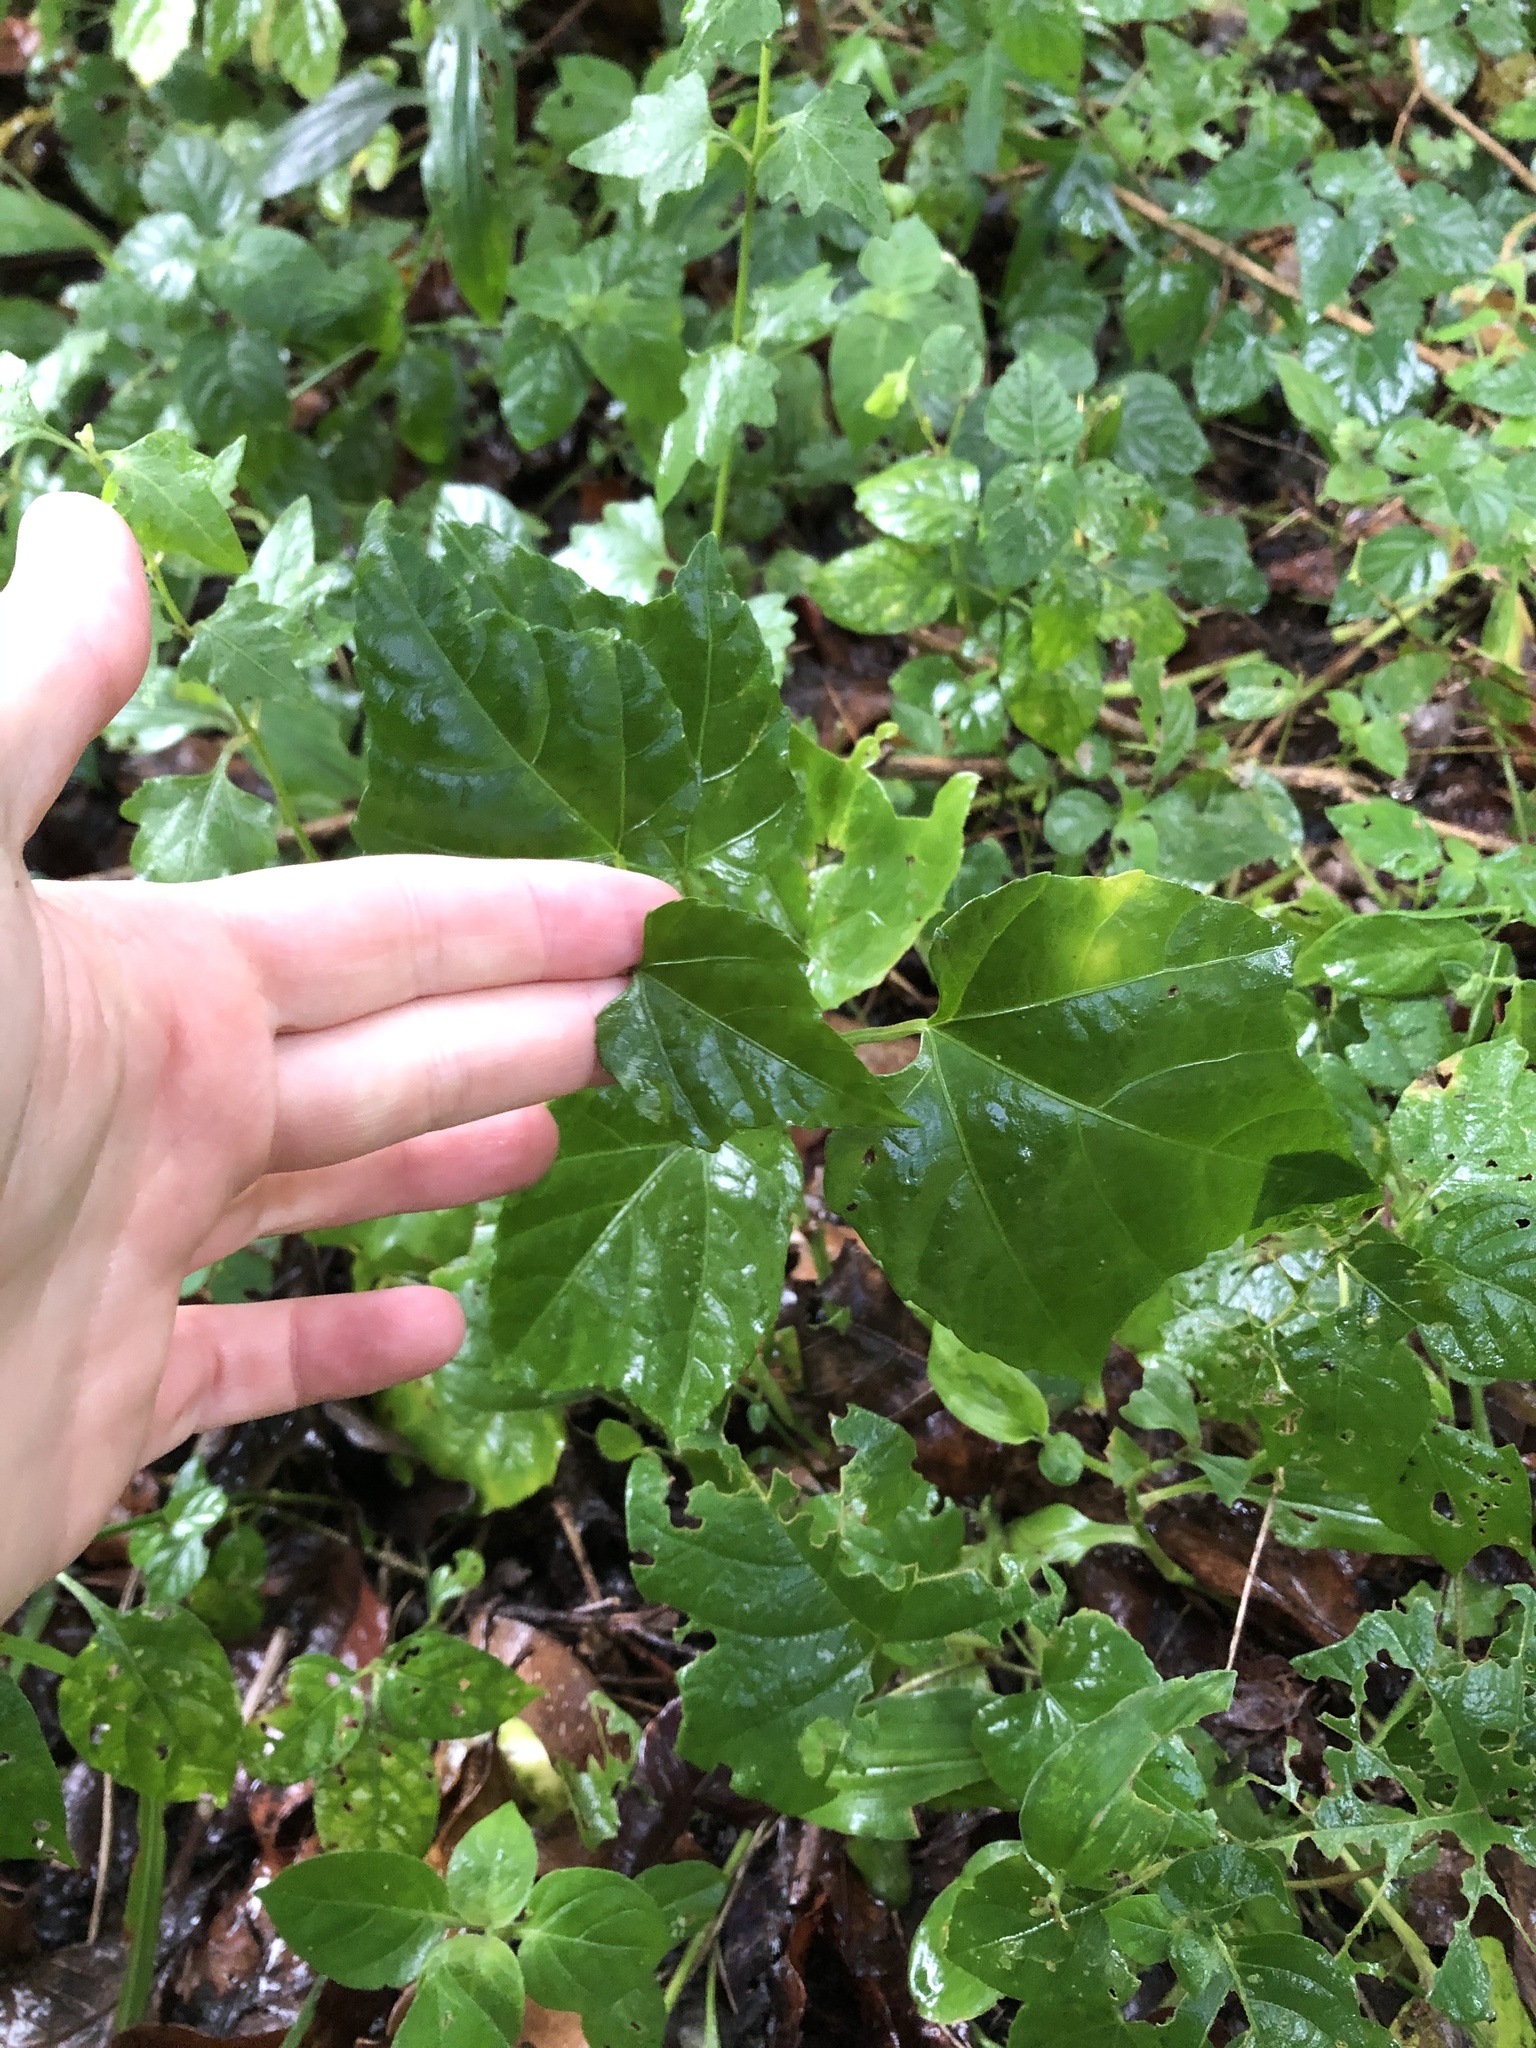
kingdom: Plantae
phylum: Tracheophyta
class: Magnoliopsida
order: Vitales
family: Vitaceae
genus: Rhoicissus
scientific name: Rhoicissus tomentosa
